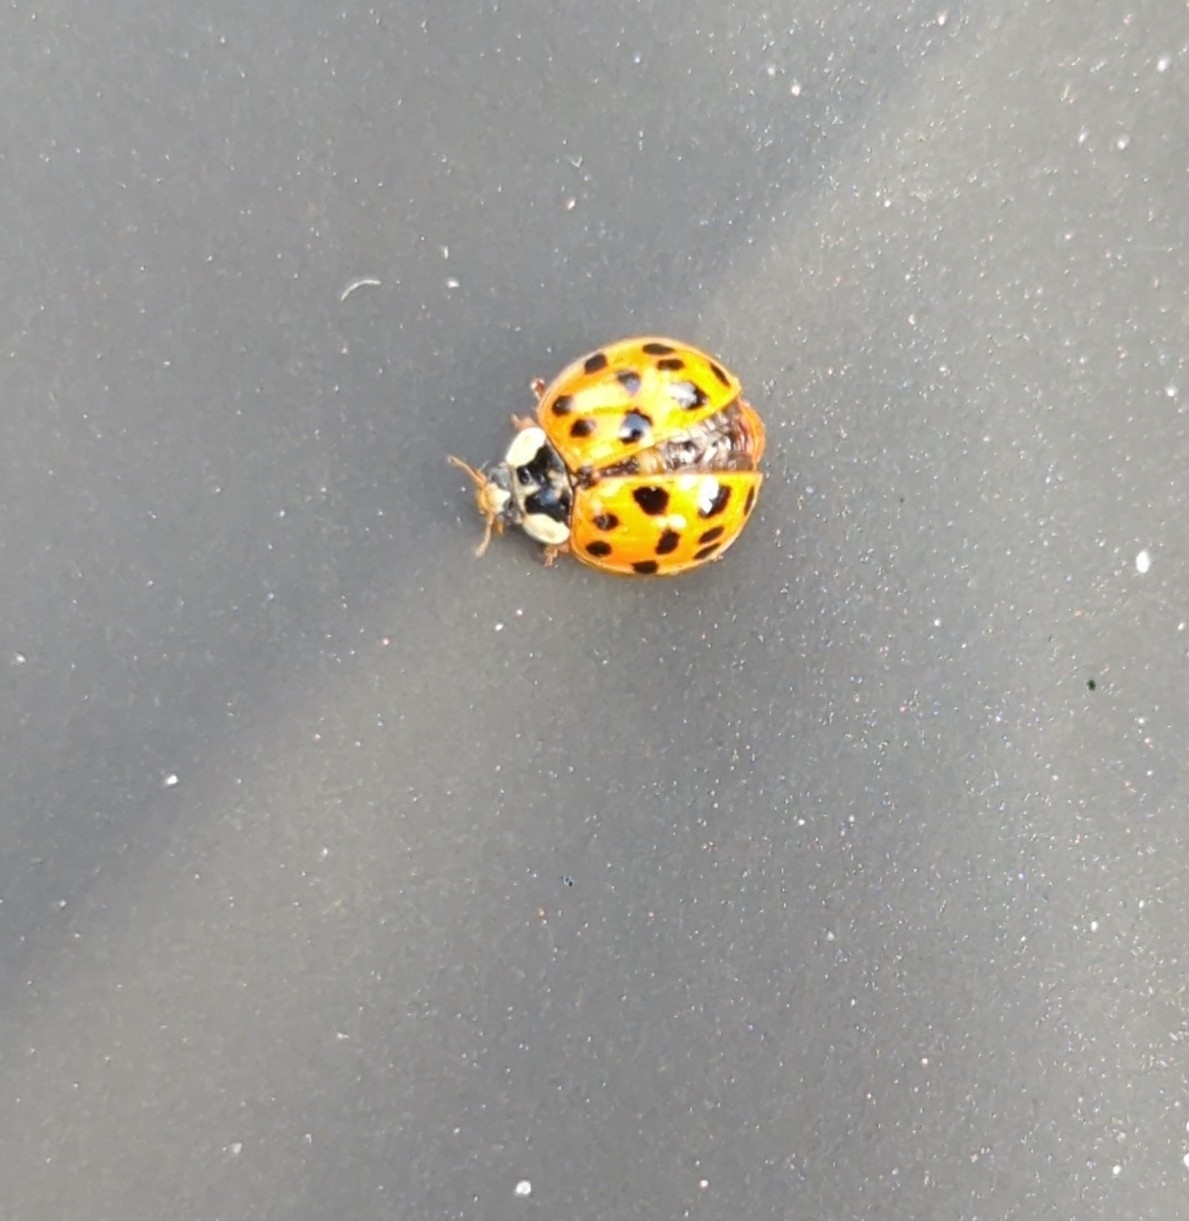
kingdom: Animalia
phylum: Arthropoda
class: Insecta
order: Coleoptera
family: Coccinellidae
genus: Harmonia
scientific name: Harmonia axyridis
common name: Harlequin ladybird
